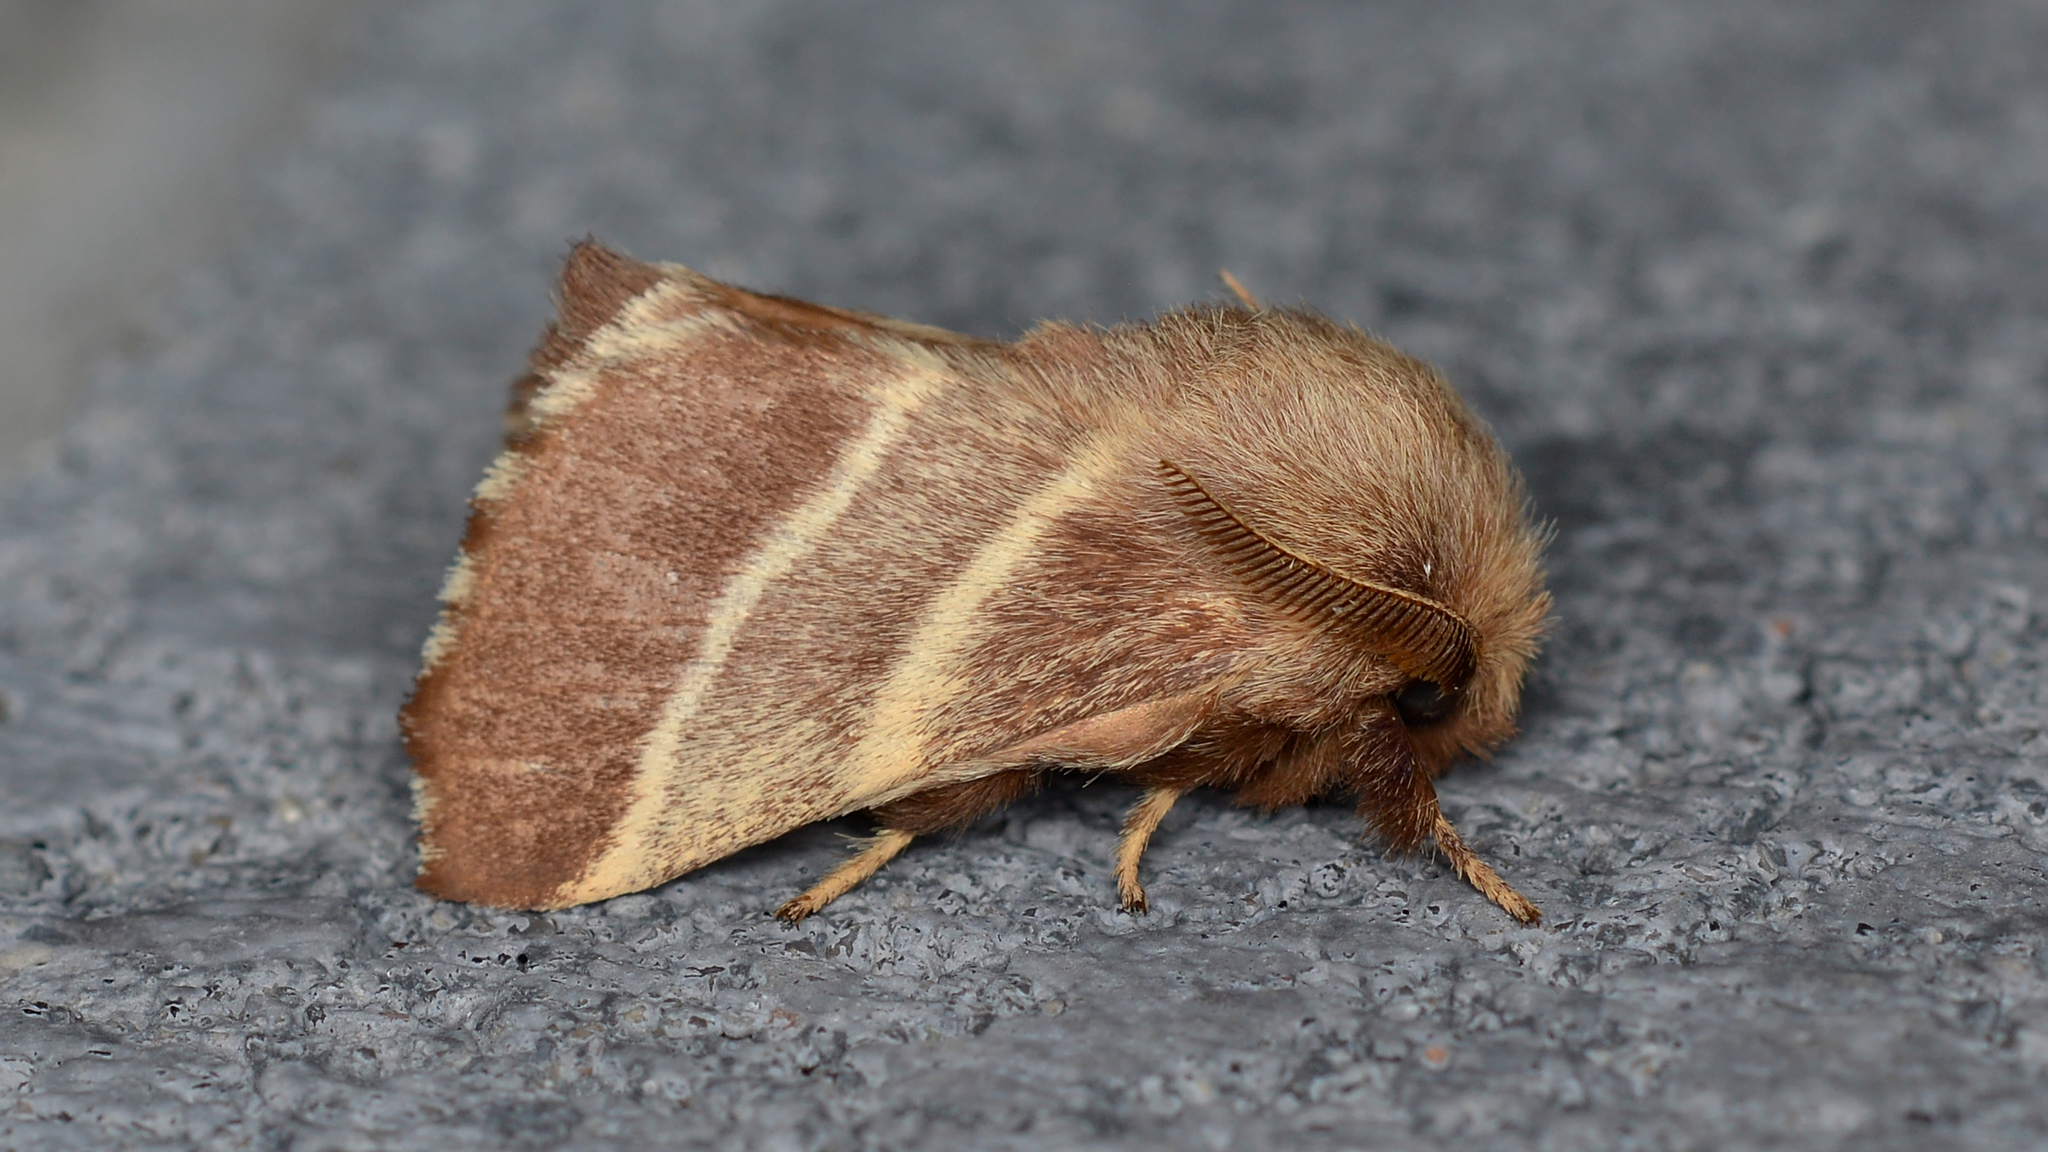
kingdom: Animalia
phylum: Arthropoda
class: Insecta
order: Lepidoptera
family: Lasiocampidae
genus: Malacosoma
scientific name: Malacosoma americana
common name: Eastern tent caterpillar moth
